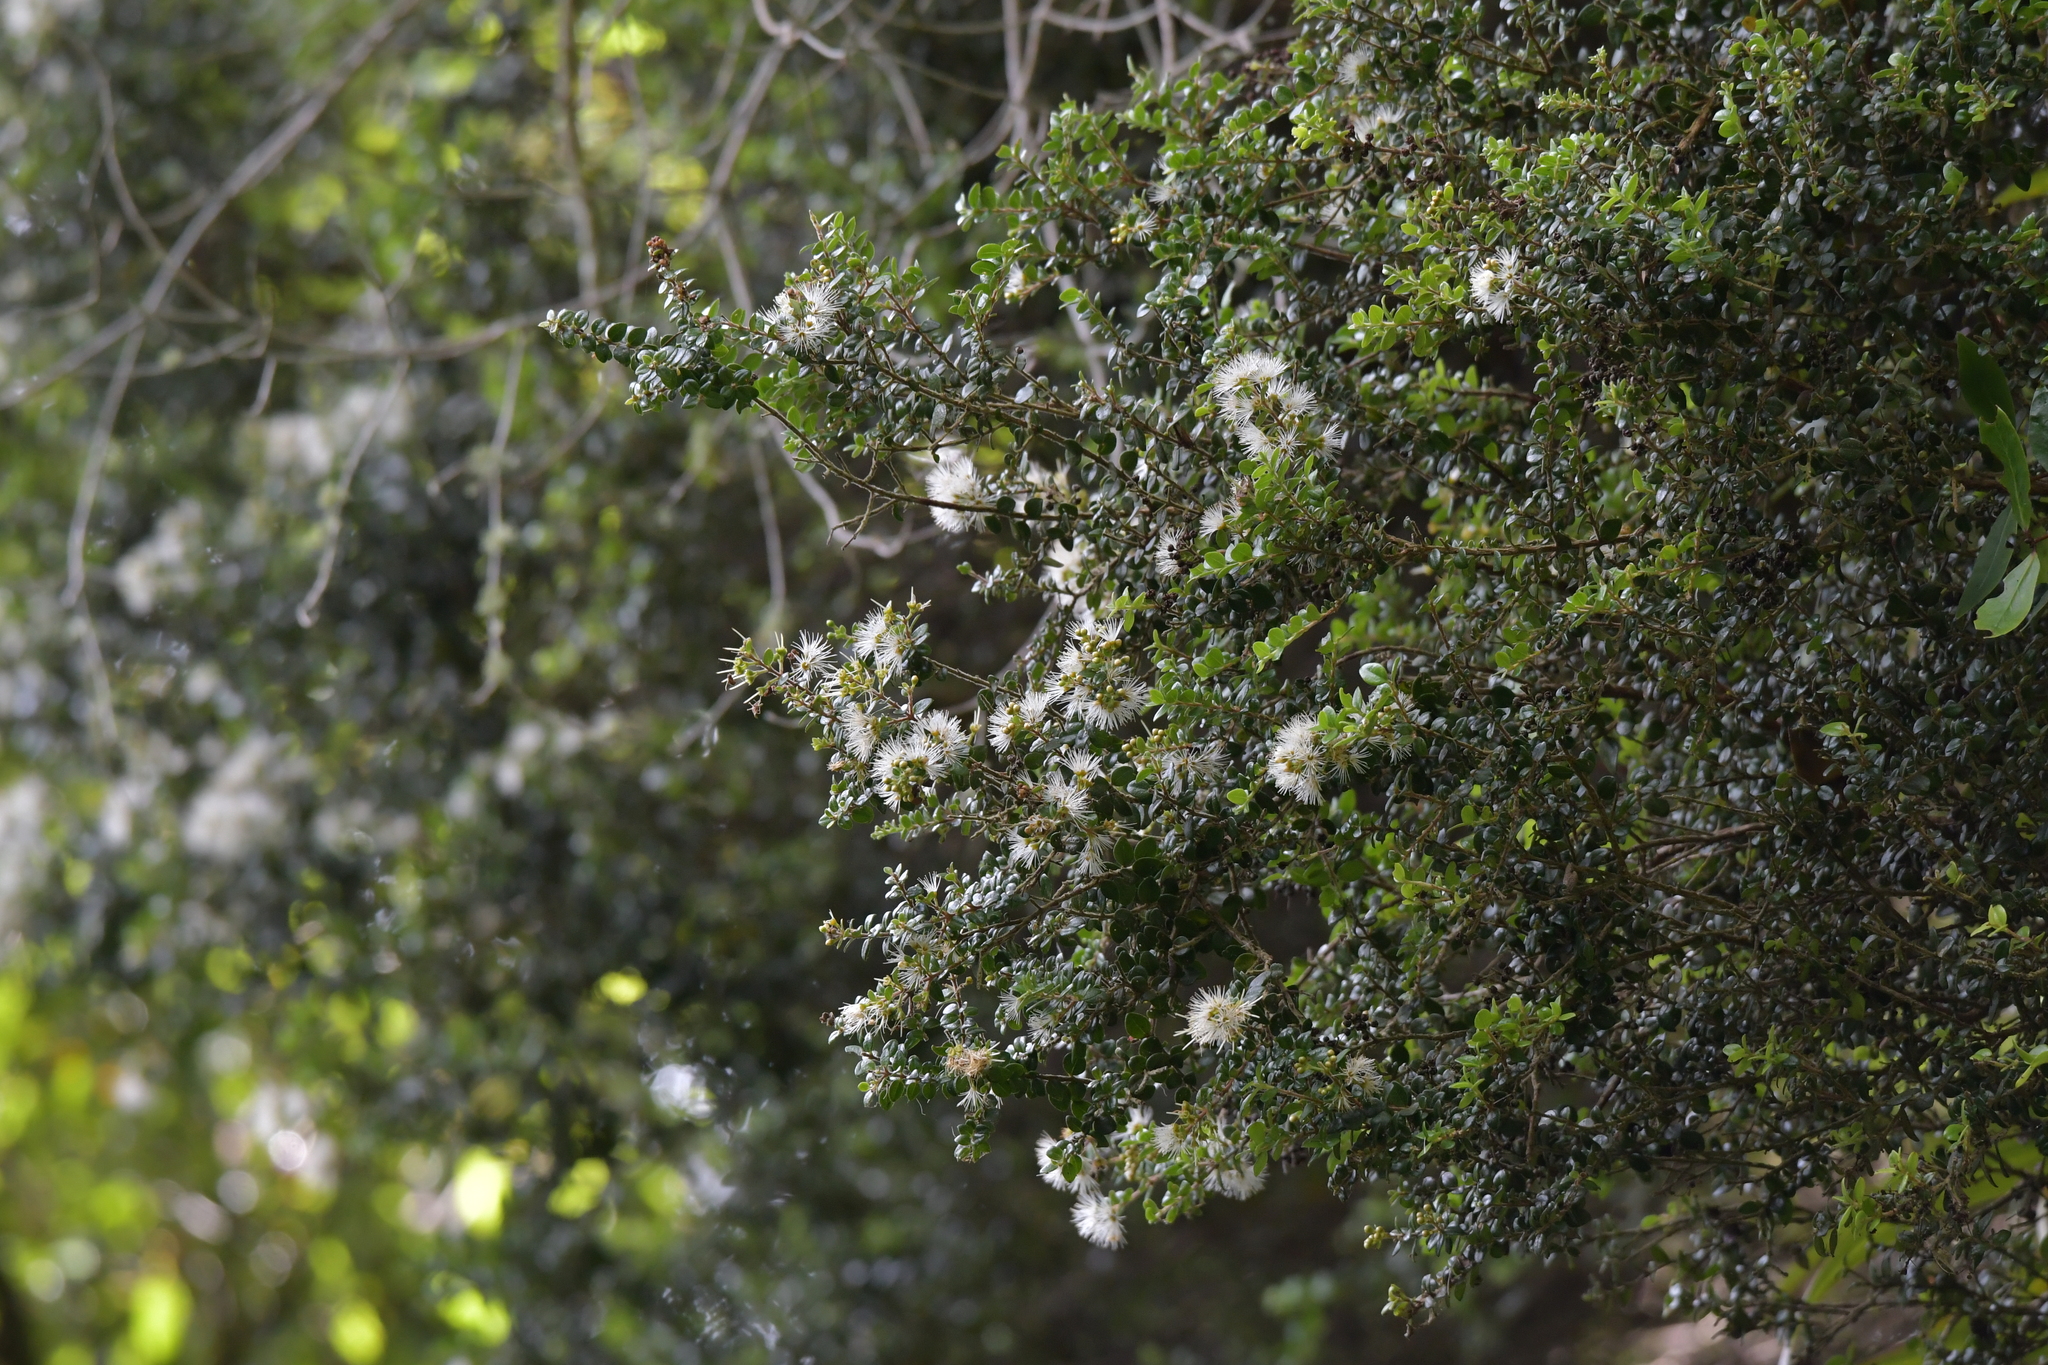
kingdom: Plantae
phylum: Tracheophyta
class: Magnoliopsida
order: Myrtales
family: Myrtaceae
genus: Metrosideros
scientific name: Metrosideros perforata
